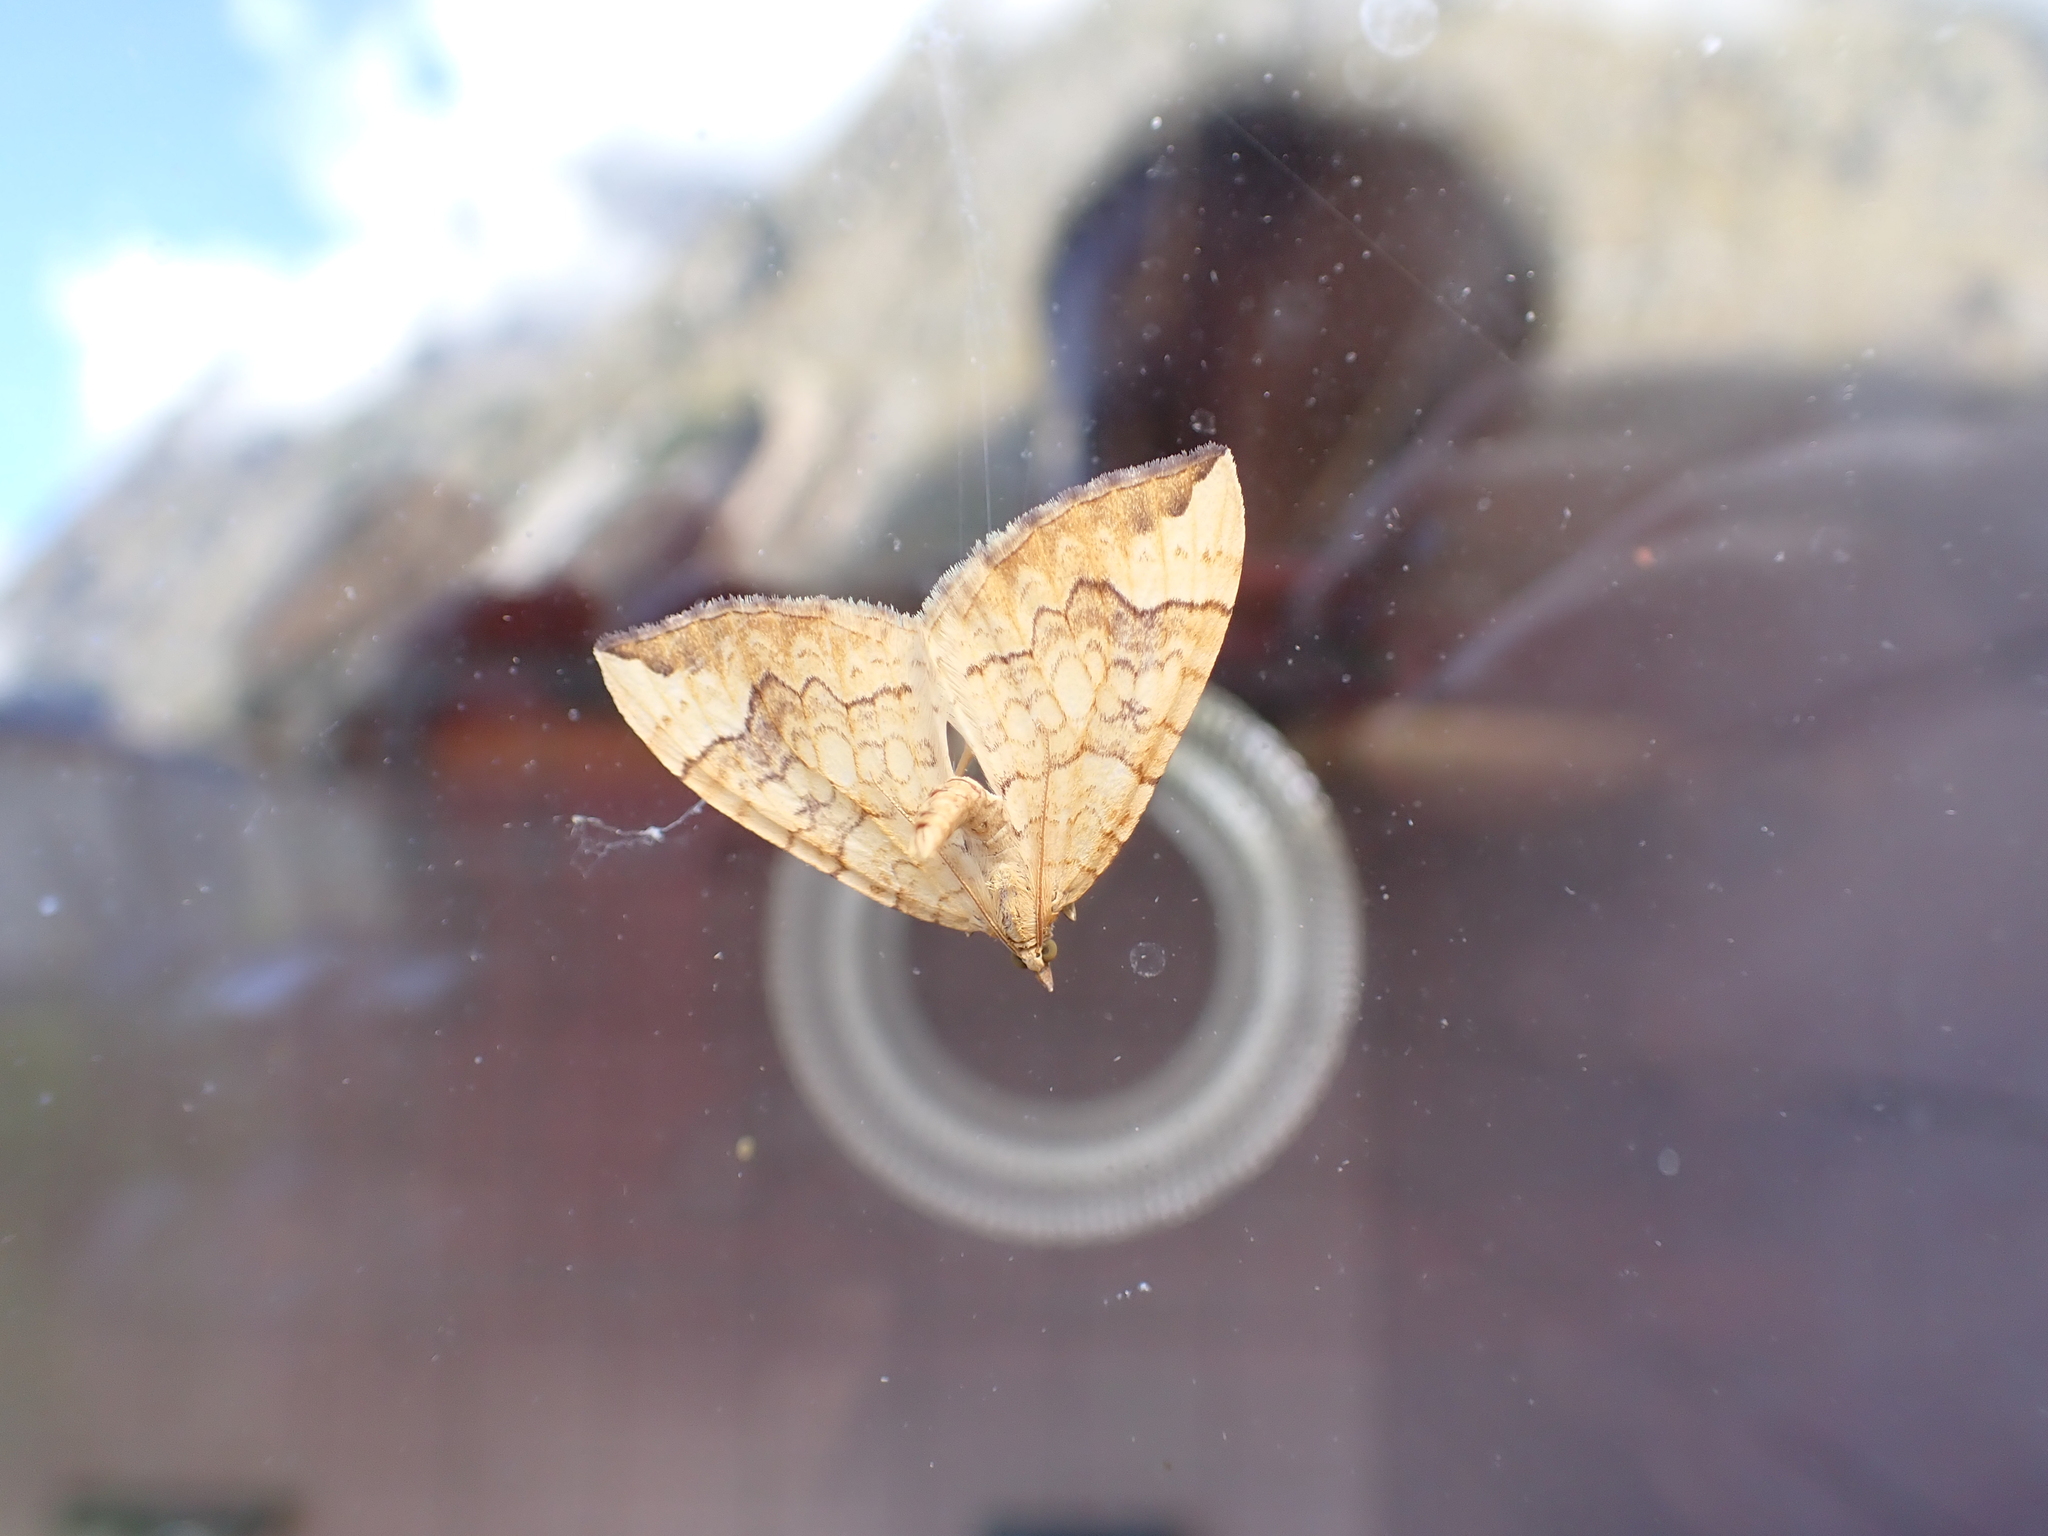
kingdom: Animalia
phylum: Arthropoda
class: Insecta
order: Lepidoptera
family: Geometridae
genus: Eulithis
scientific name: Eulithis populata
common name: Northern spinach
